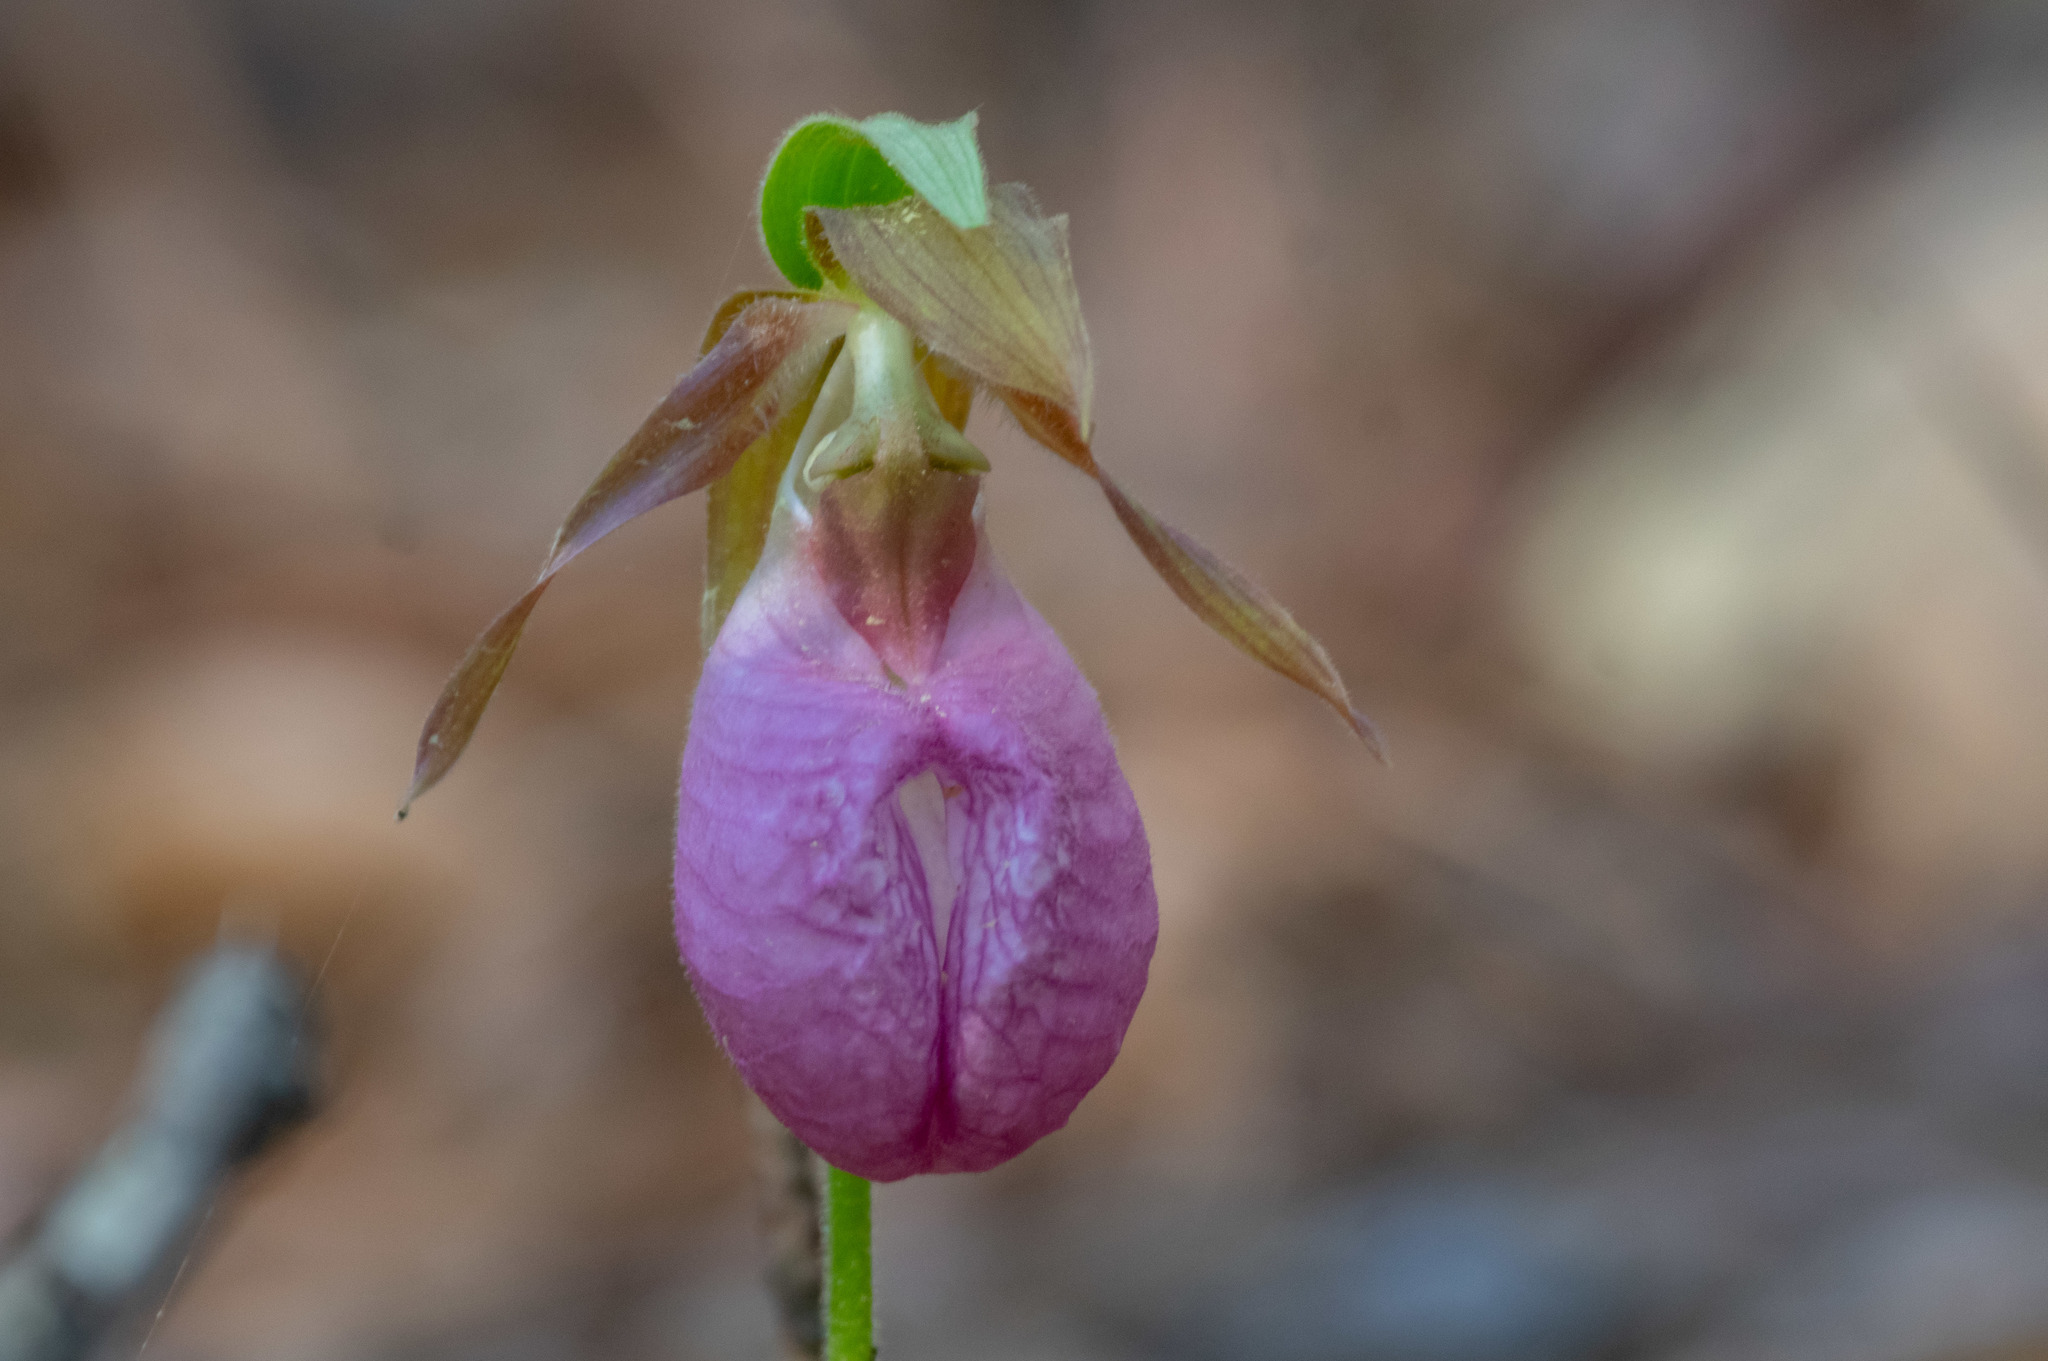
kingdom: Plantae
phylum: Tracheophyta
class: Liliopsida
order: Asparagales
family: Orchidaceae
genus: Cypripedium
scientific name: Cypripedium acaule
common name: Pink lady's-slipper
